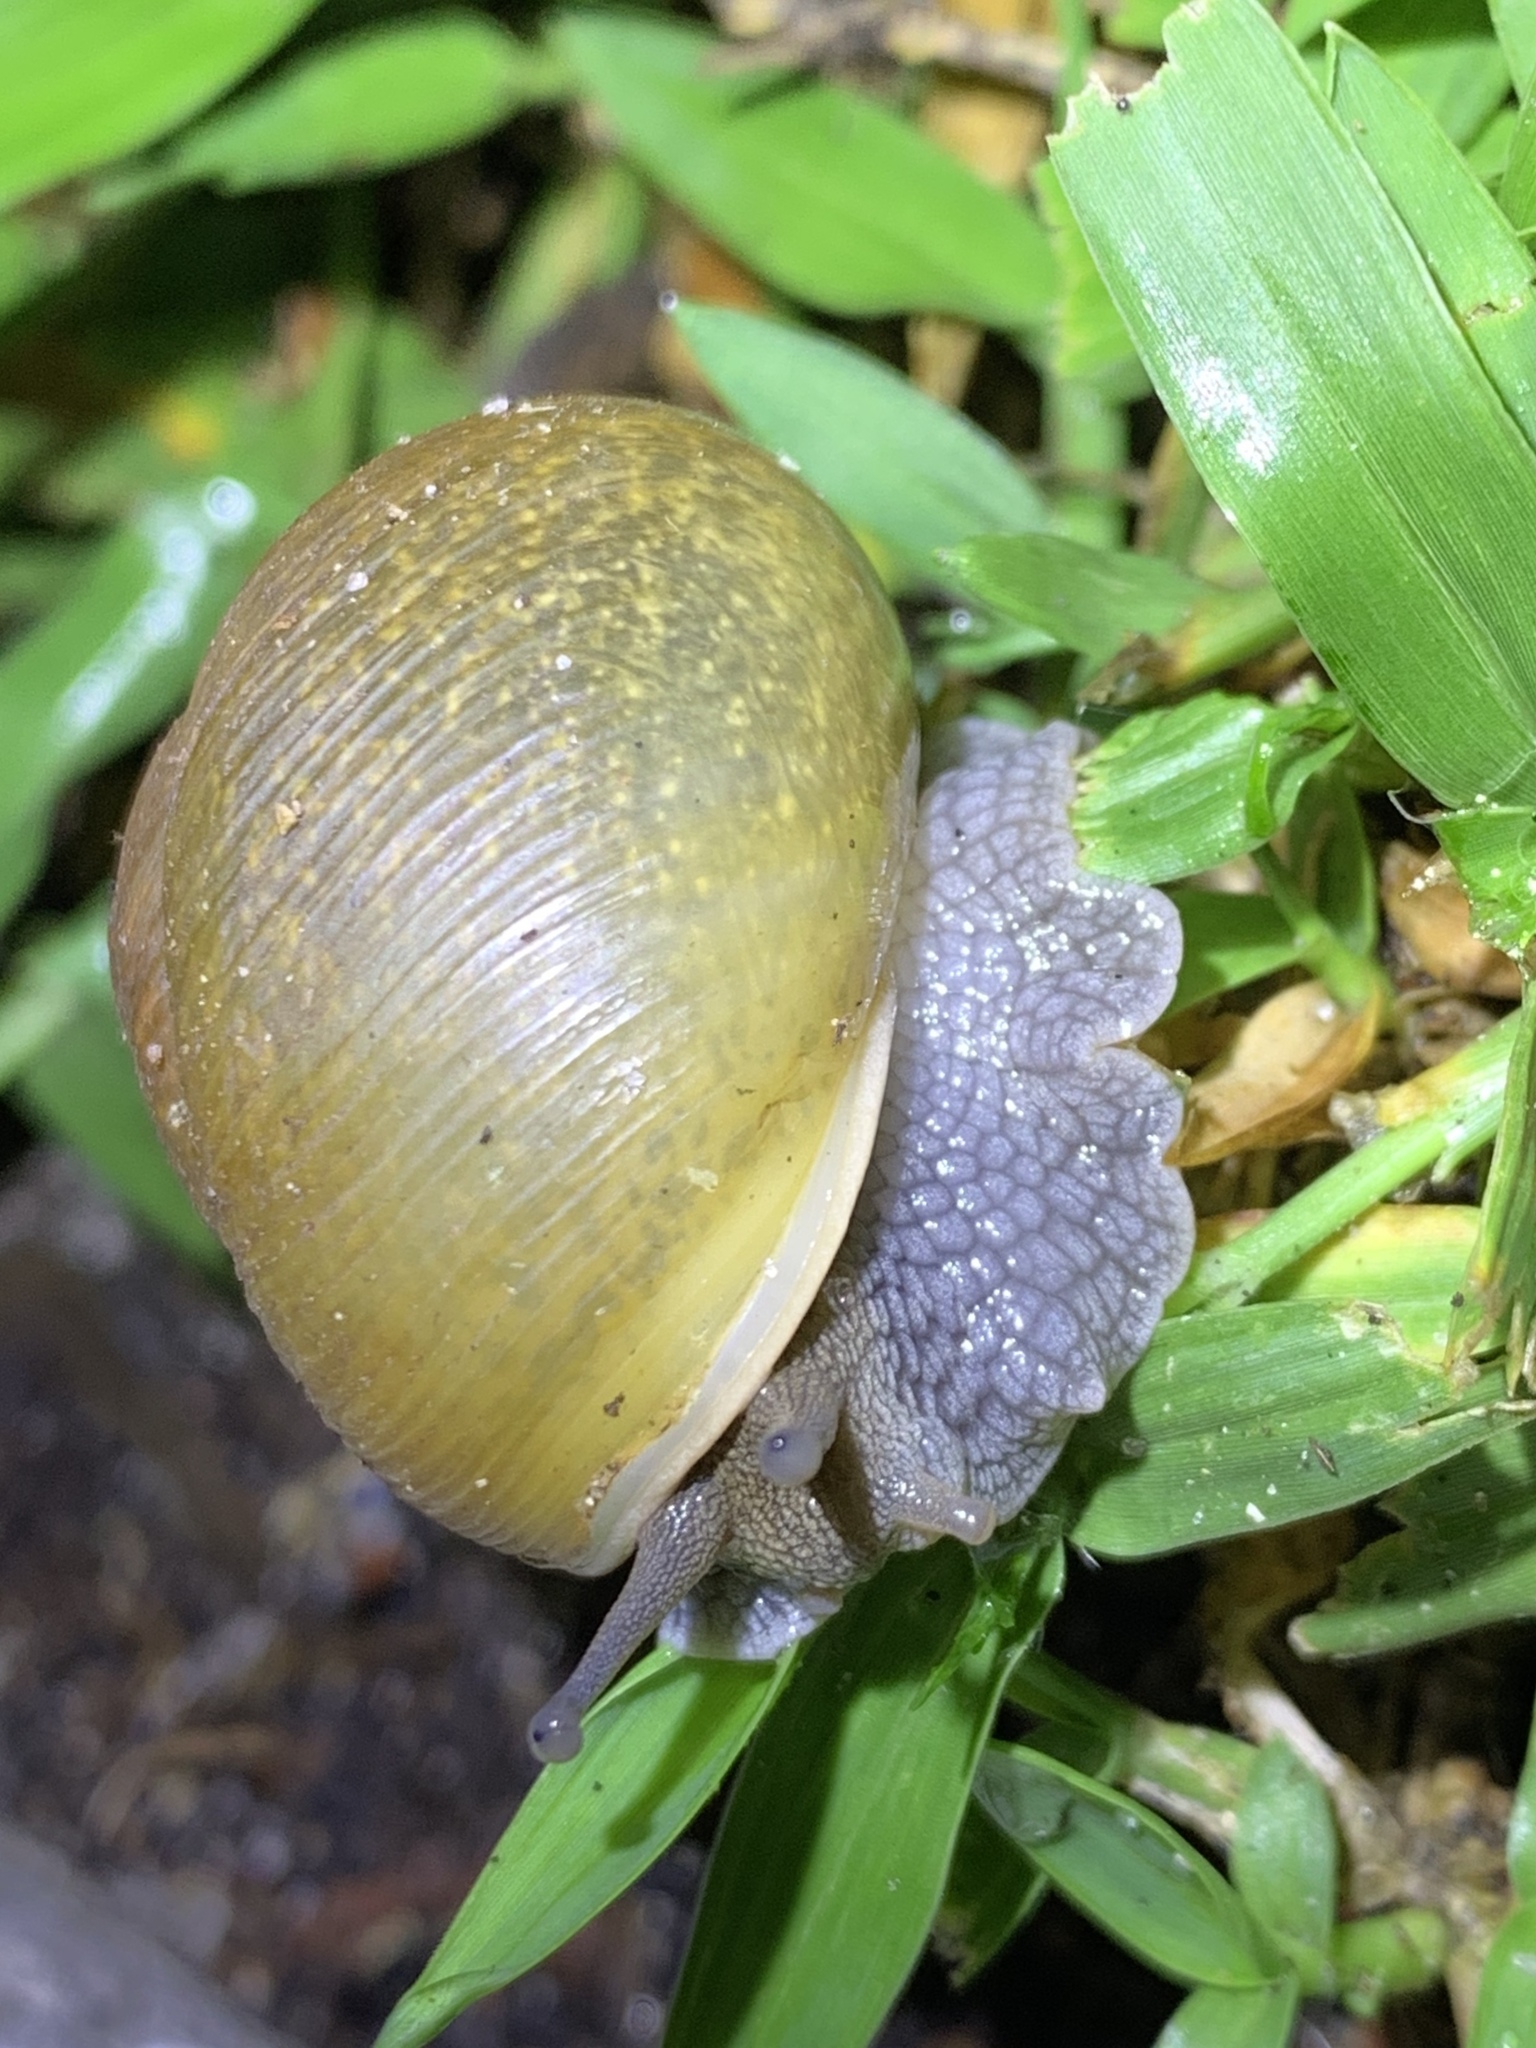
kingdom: Animalia
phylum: Mollusca
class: Gastropoda
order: Stylommatophora
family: Zachrysiidae
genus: Zachrysia
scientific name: Zachrysia provisoria
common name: Garden zachrysia
